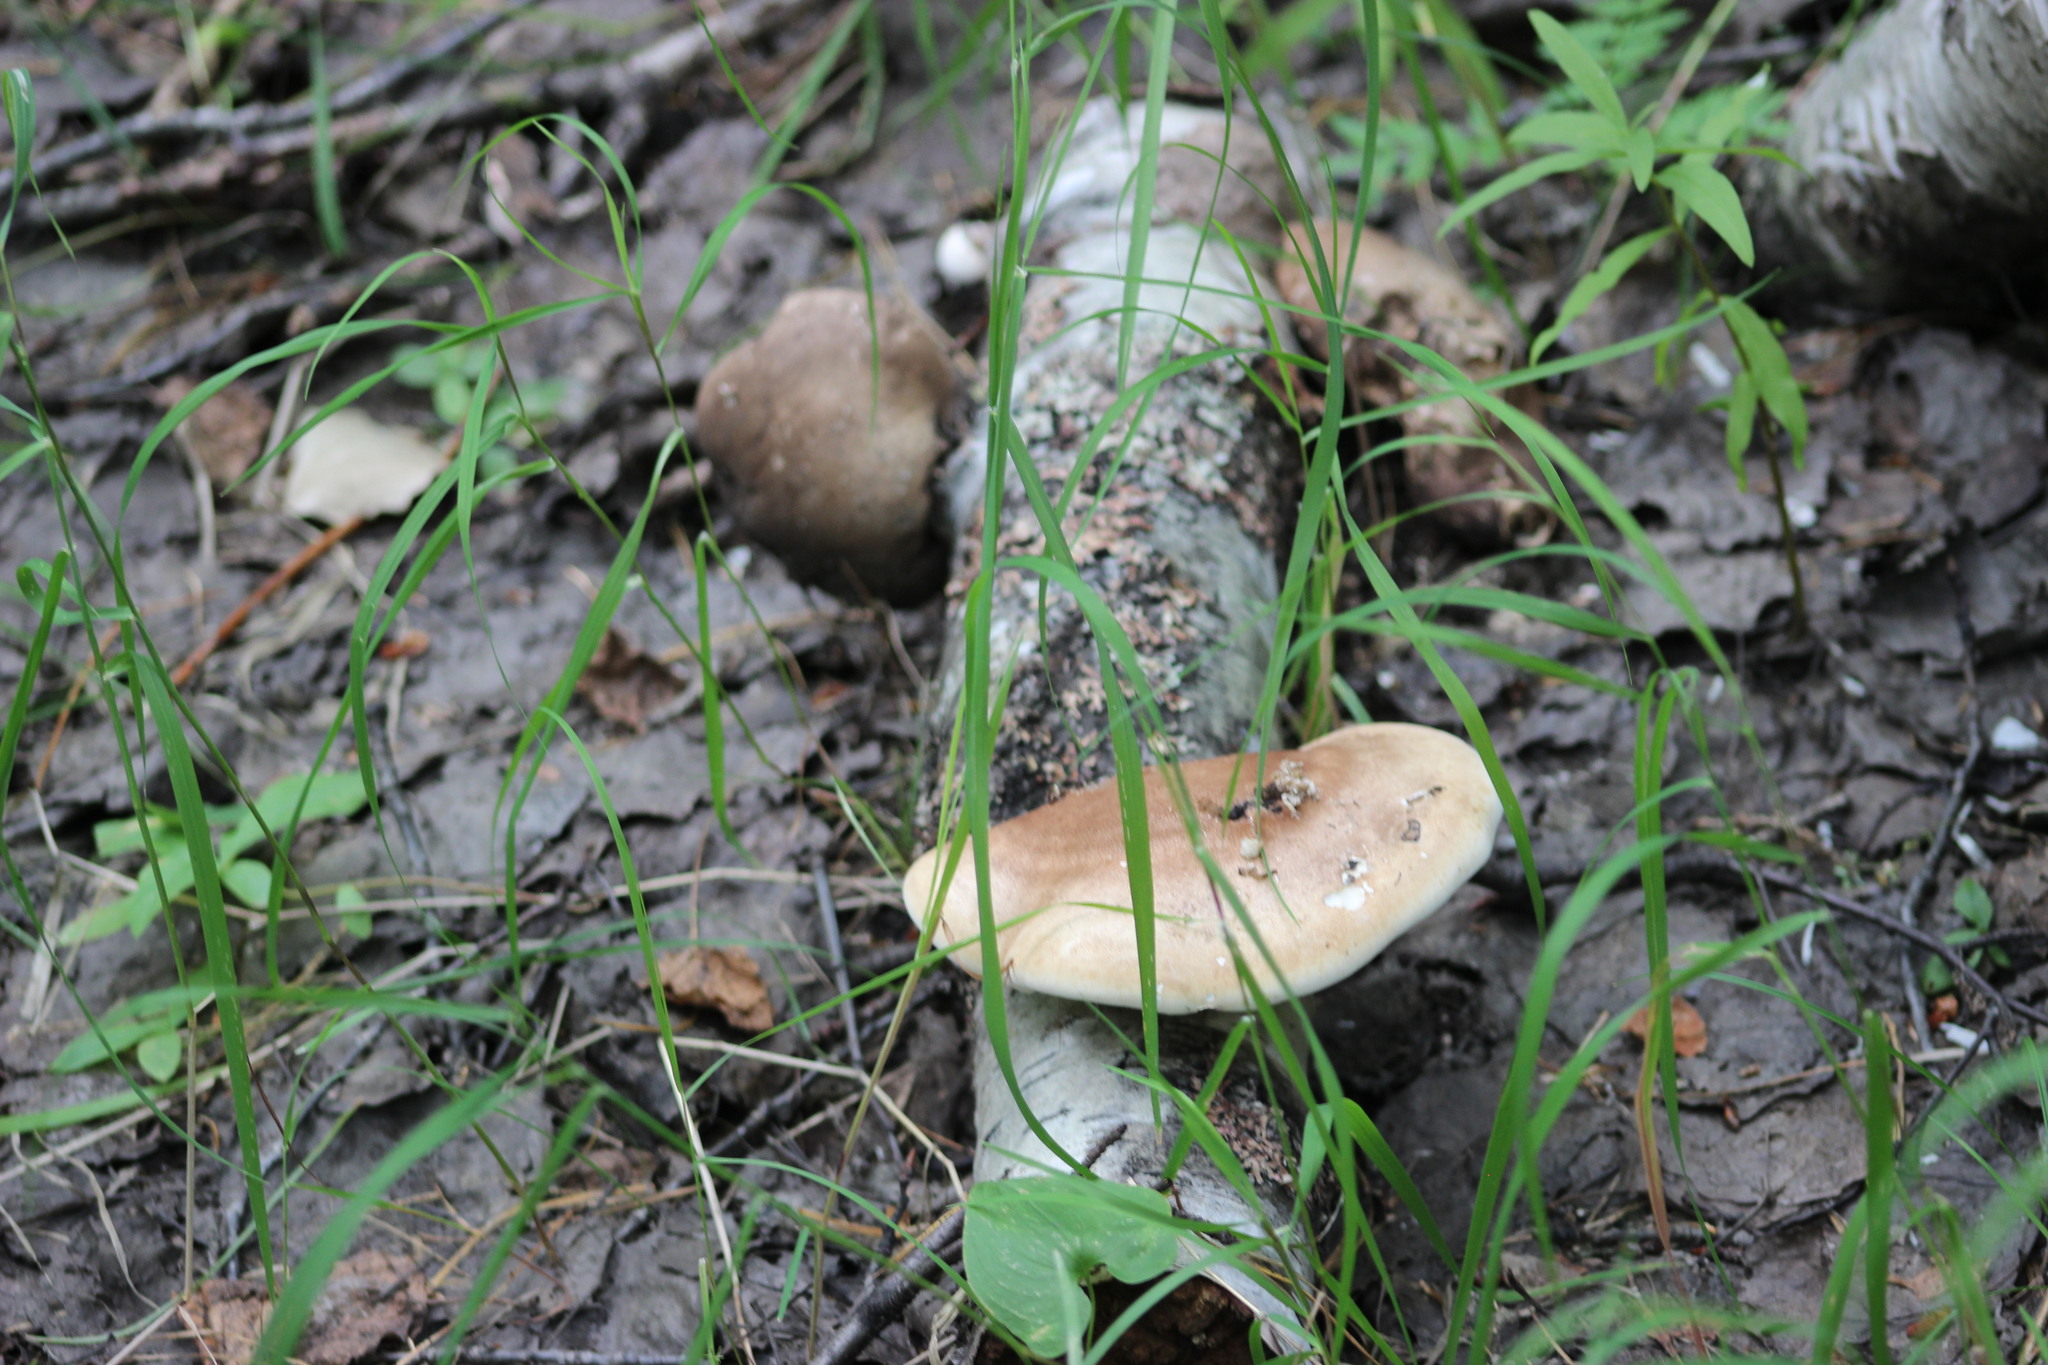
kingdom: Fungi
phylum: Basidiomycota
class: Agaricomycetes
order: Polyporales
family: Fomitopsidaceae
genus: Fomitopsis
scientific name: Fomitopsis betulina
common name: Birch polypore
